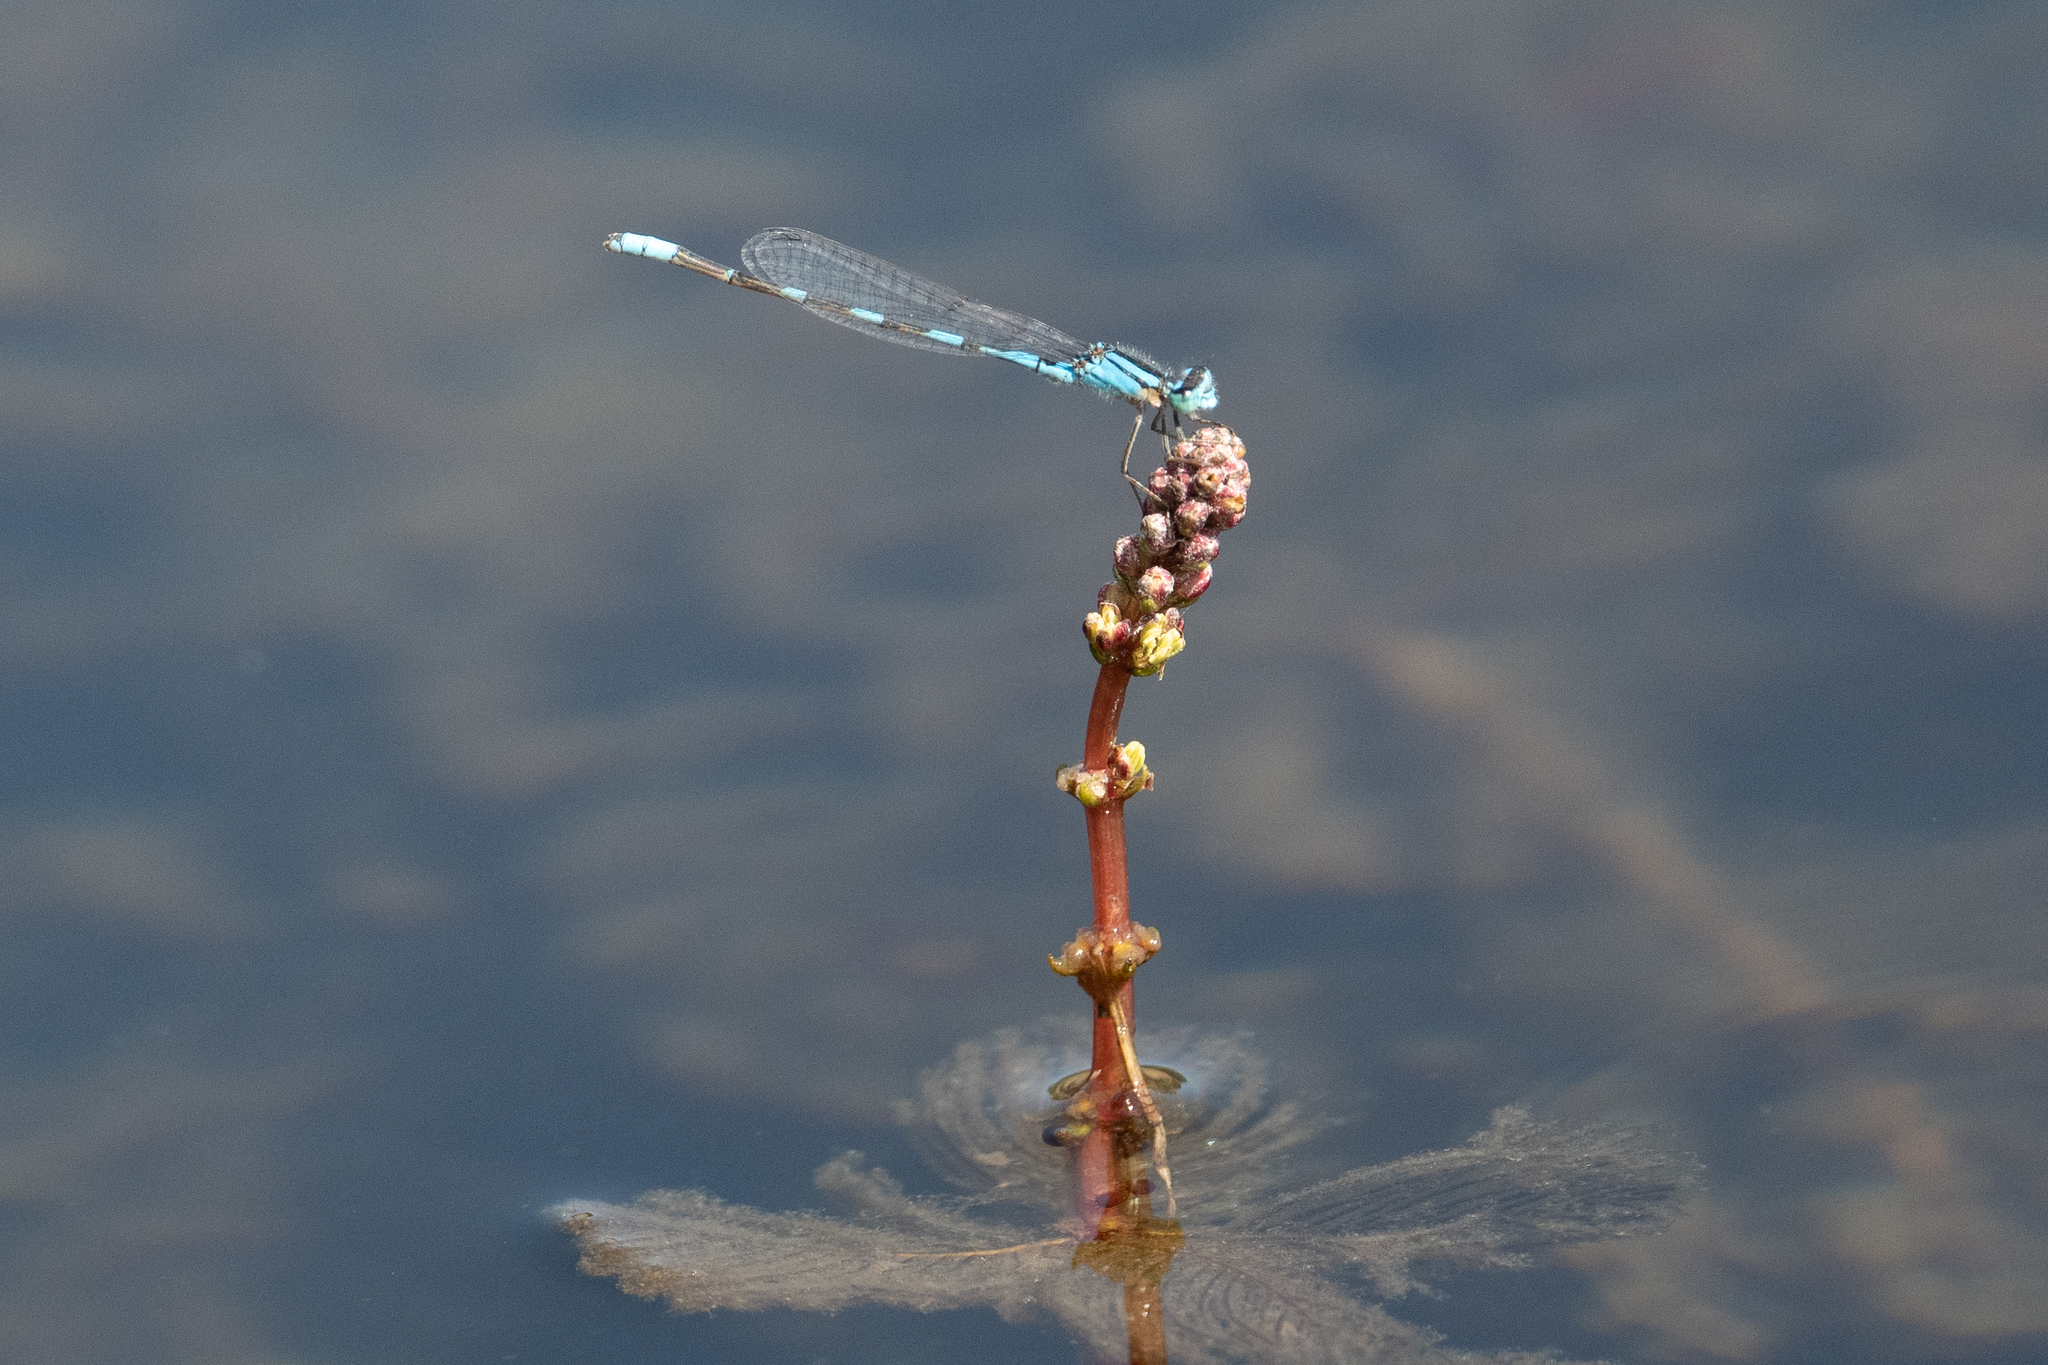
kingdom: Animalia
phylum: Arthropoda
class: Insecta
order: Odonata
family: Coenagrionidae
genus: Enallagma
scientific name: Enallagma carunculatum
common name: Tule bluet
